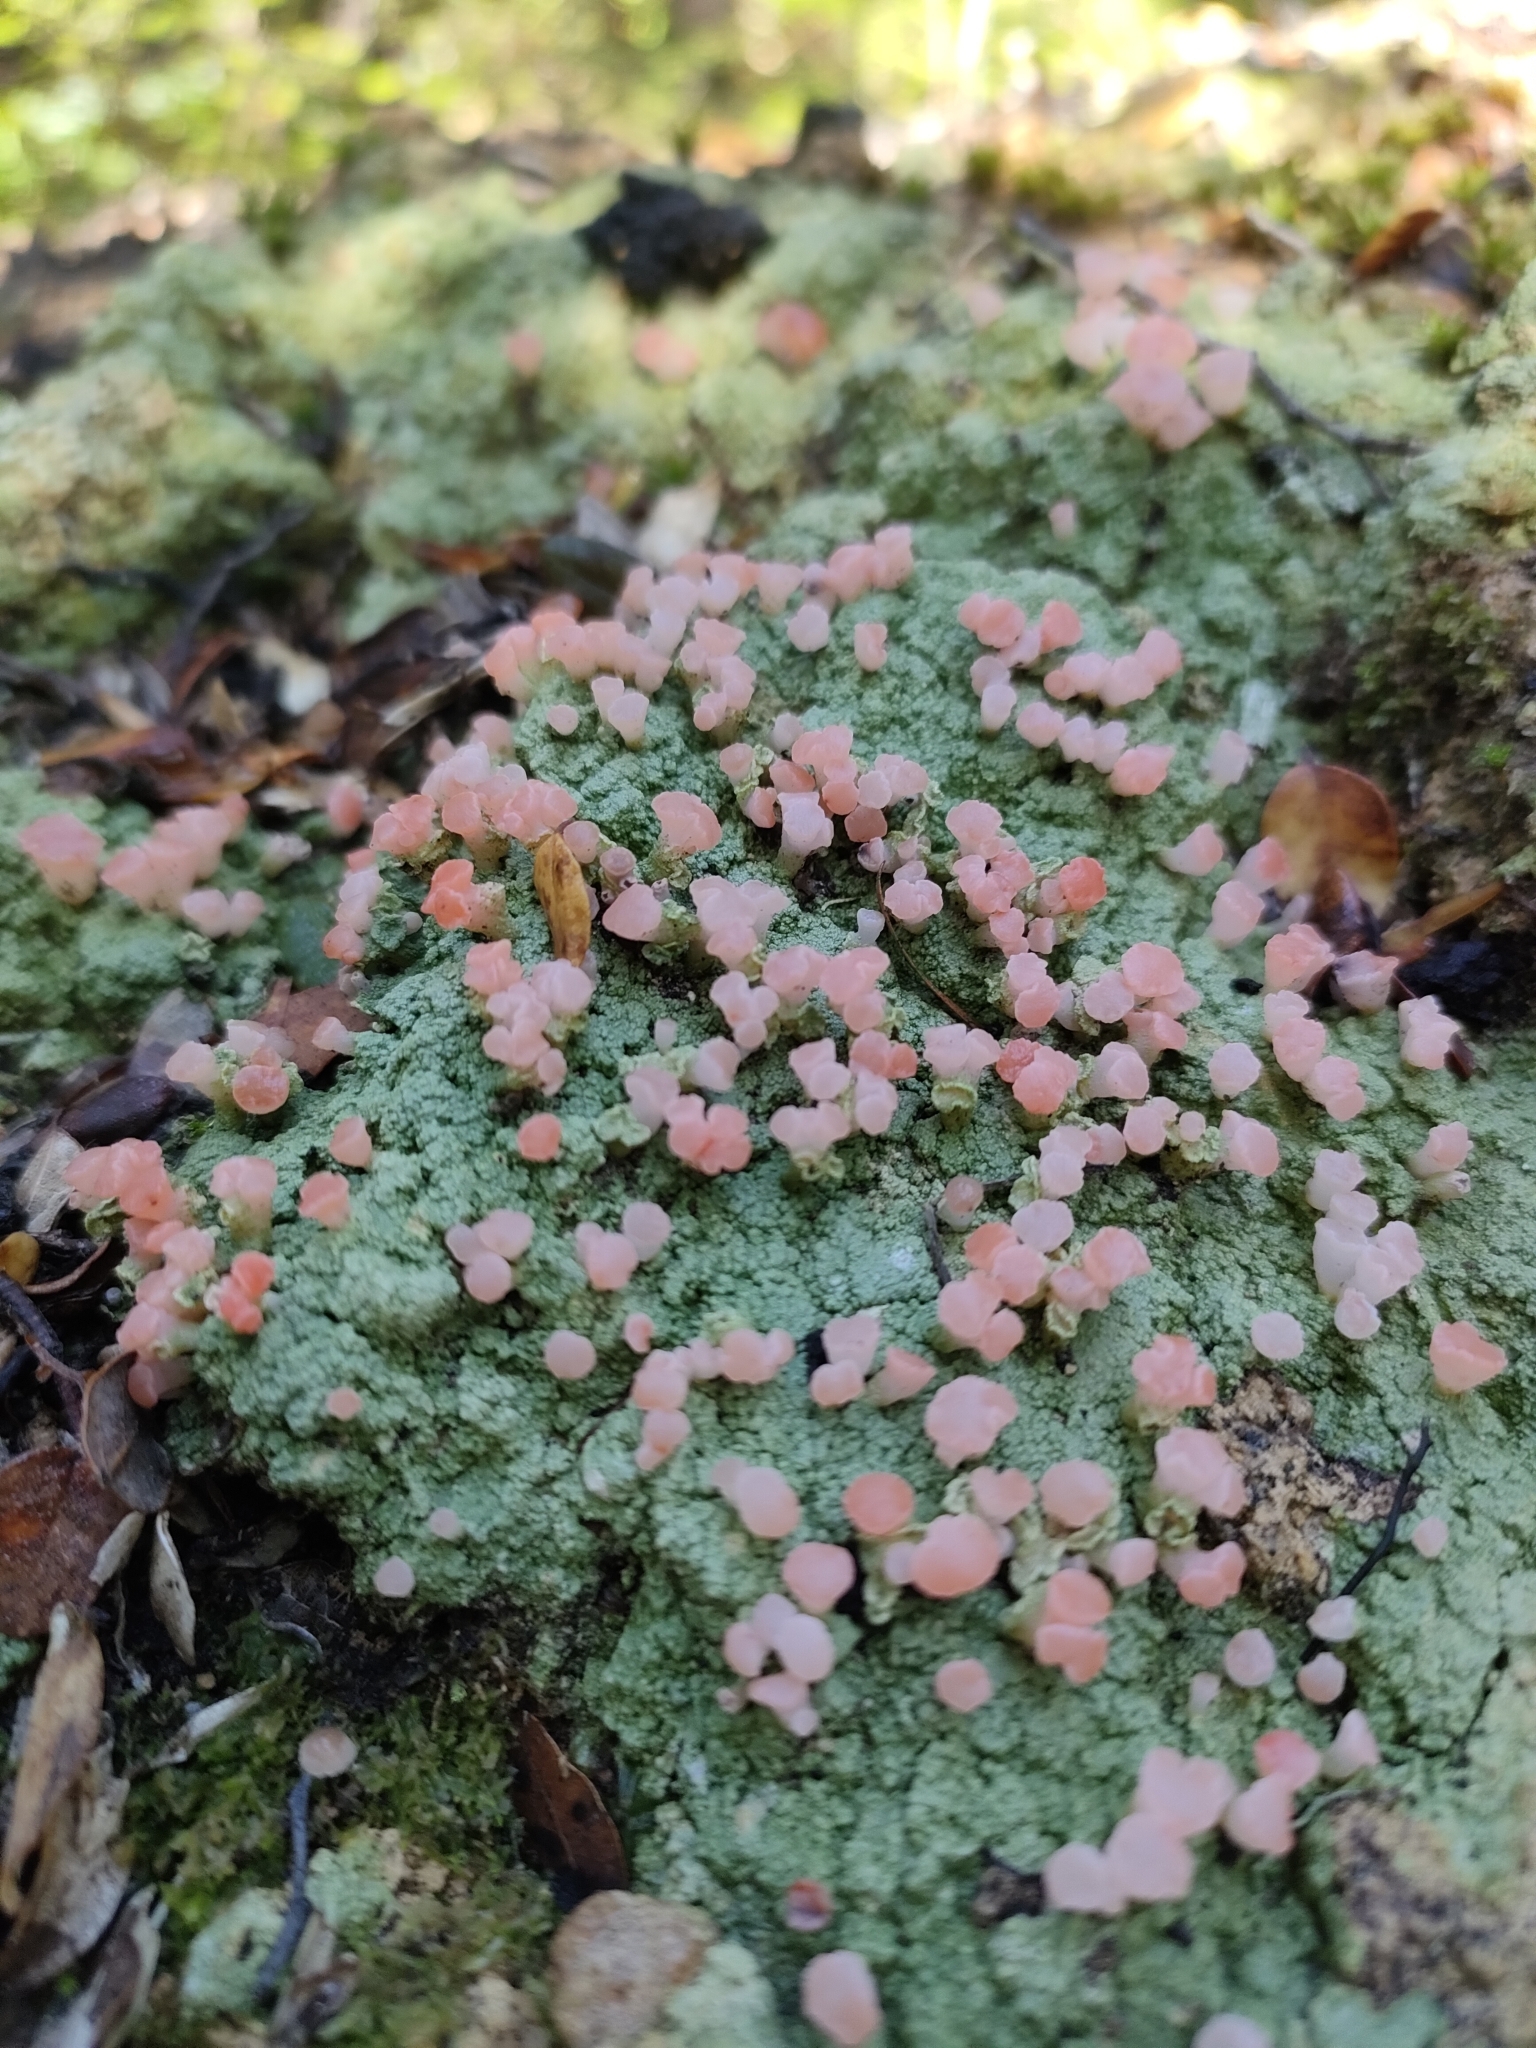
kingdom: Fungi
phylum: Ascomycota
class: Lecanoromycetes
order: Baeomycetales
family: Baeomycetaceae
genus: Baeomyces
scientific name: Baeomyces heteromorphus
